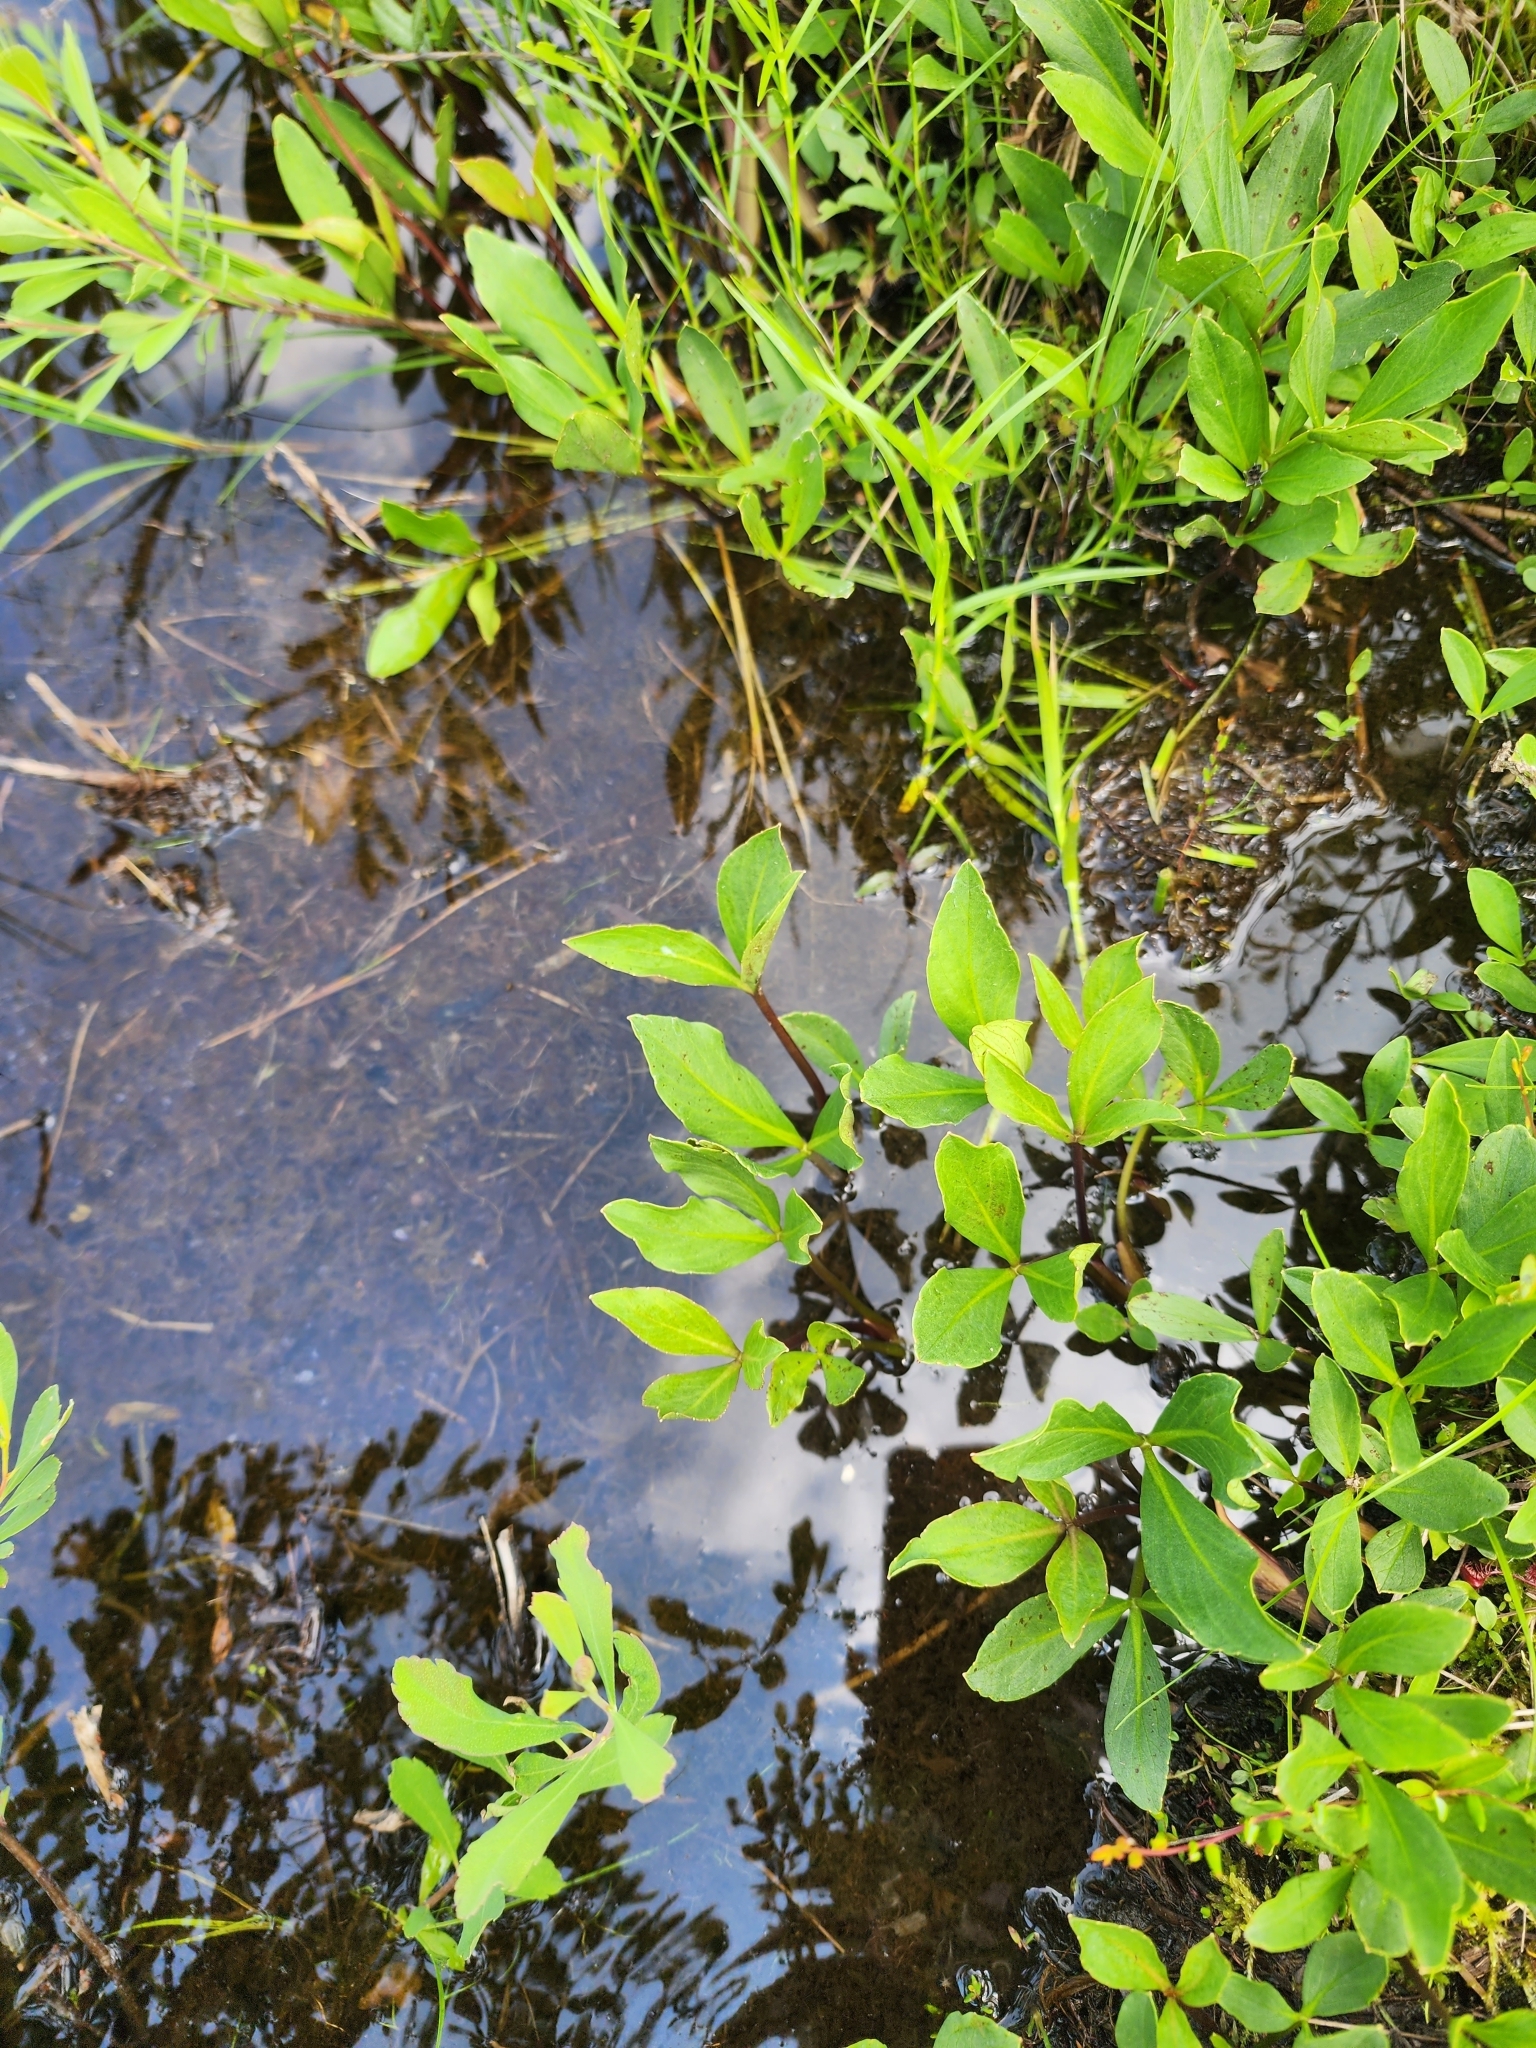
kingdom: Plantae
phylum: Tracheophyta
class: Magnoliopsida
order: Asterales
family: Menyanthaceae
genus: Menyanthes
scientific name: Menyanthes trifoliata
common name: Bogbean
